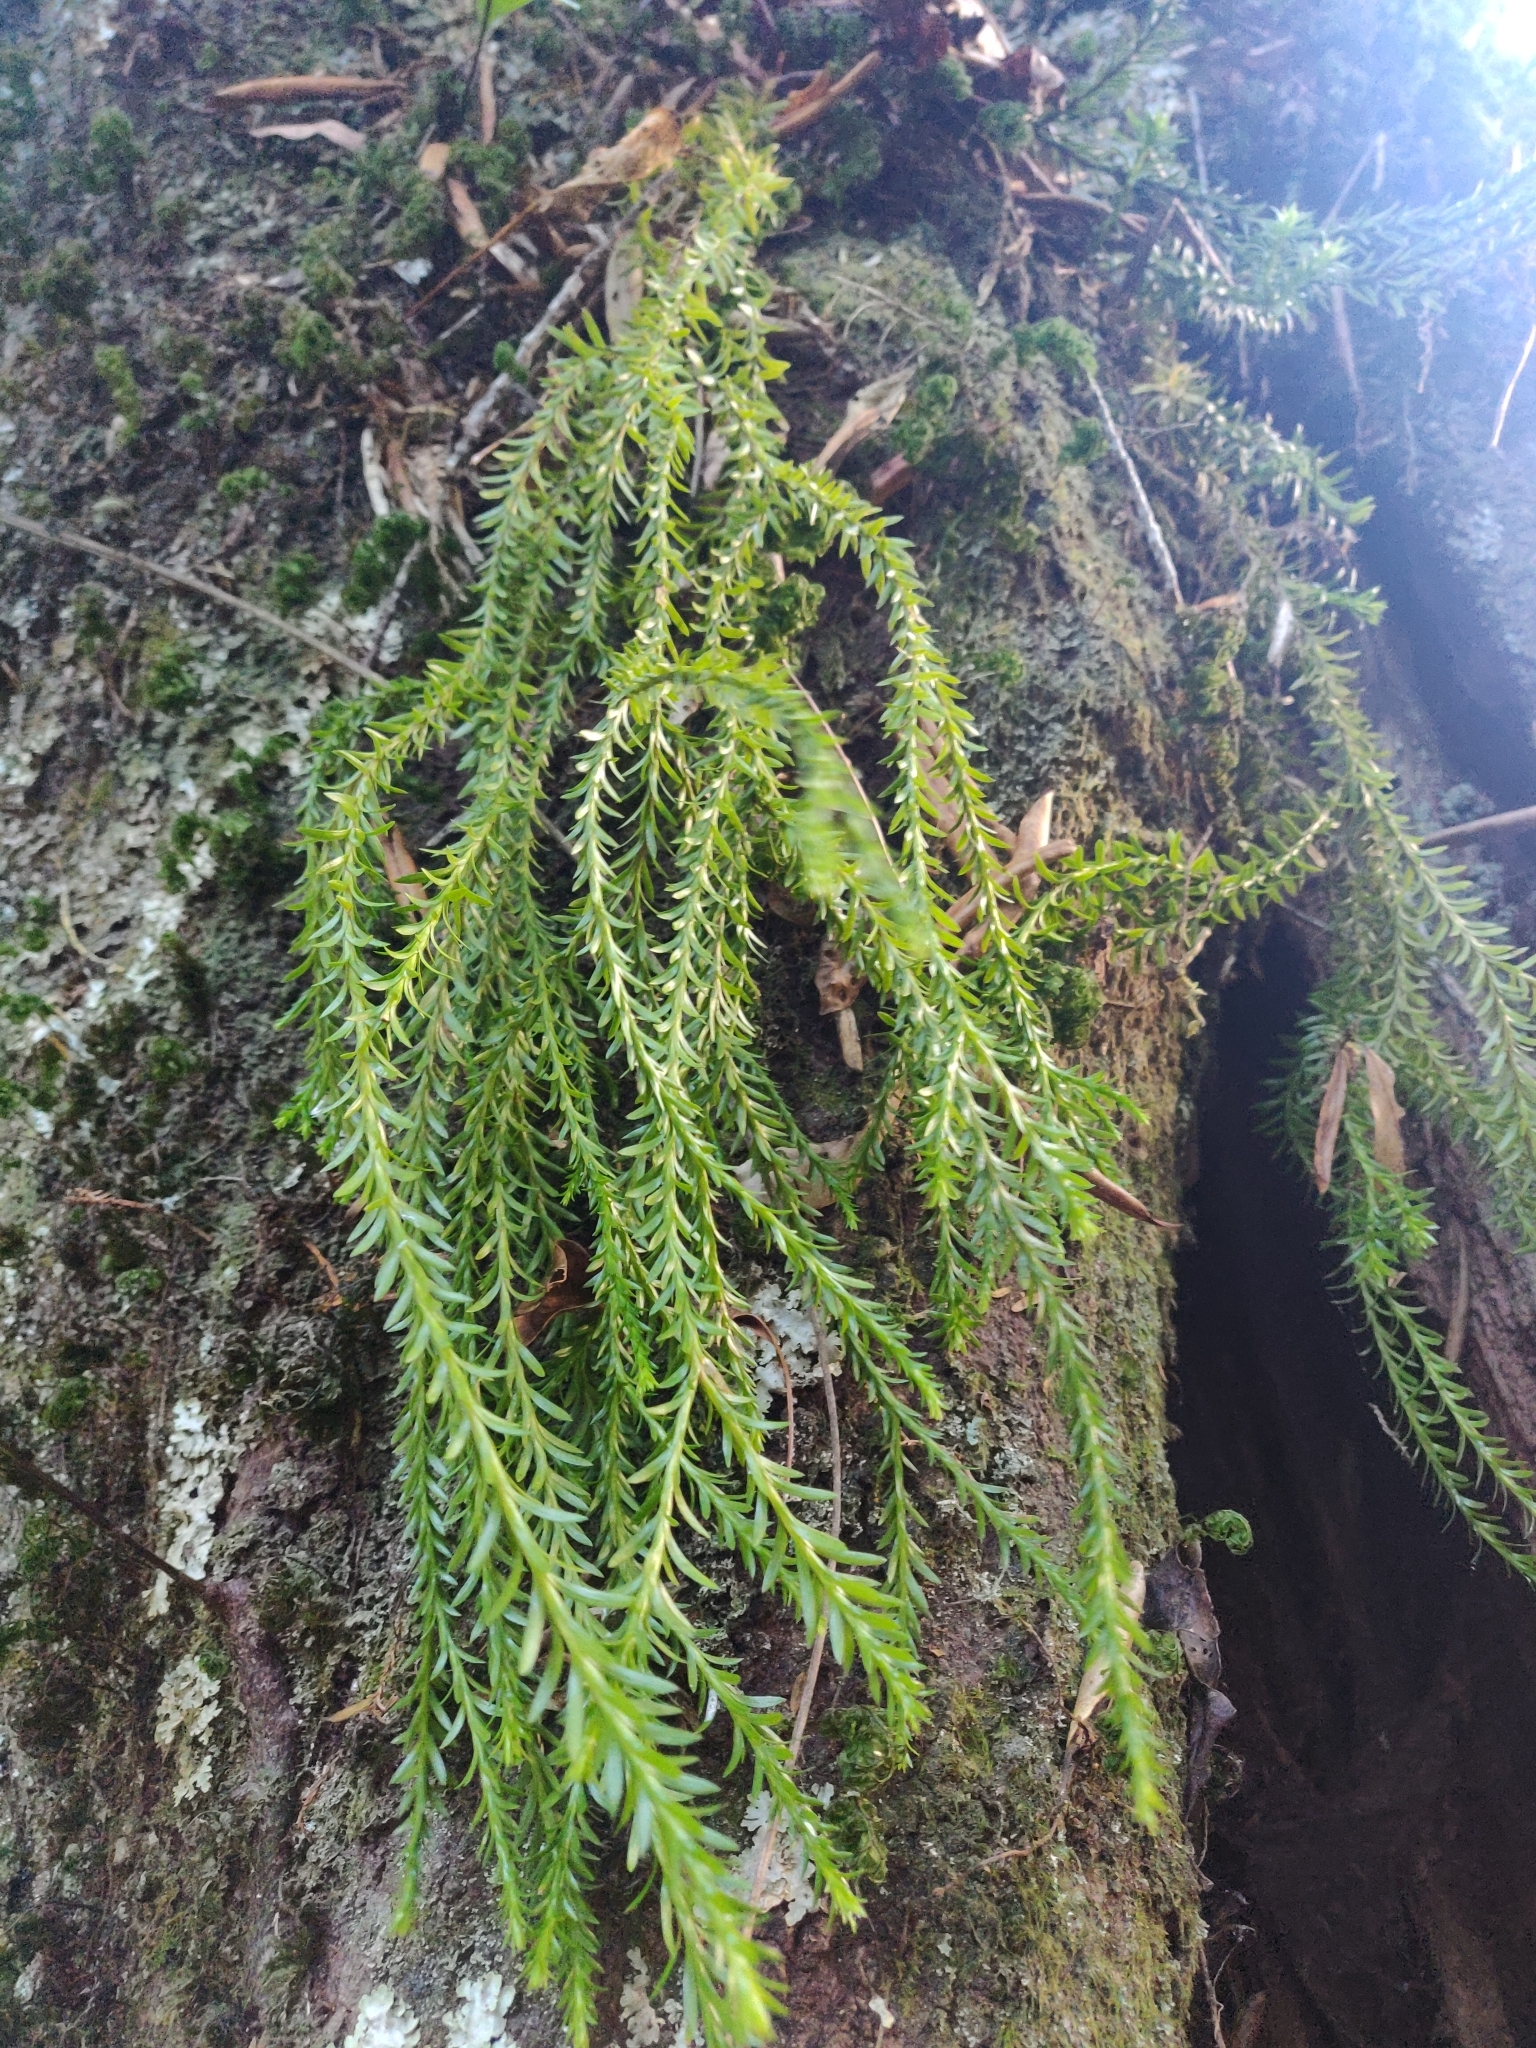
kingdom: Plantae
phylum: Tracheophyta
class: Lycopodiopsida
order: Lycopodiales
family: Lycopodiaceae
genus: Phlegmariurus
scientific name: Phlegmariurus varius
